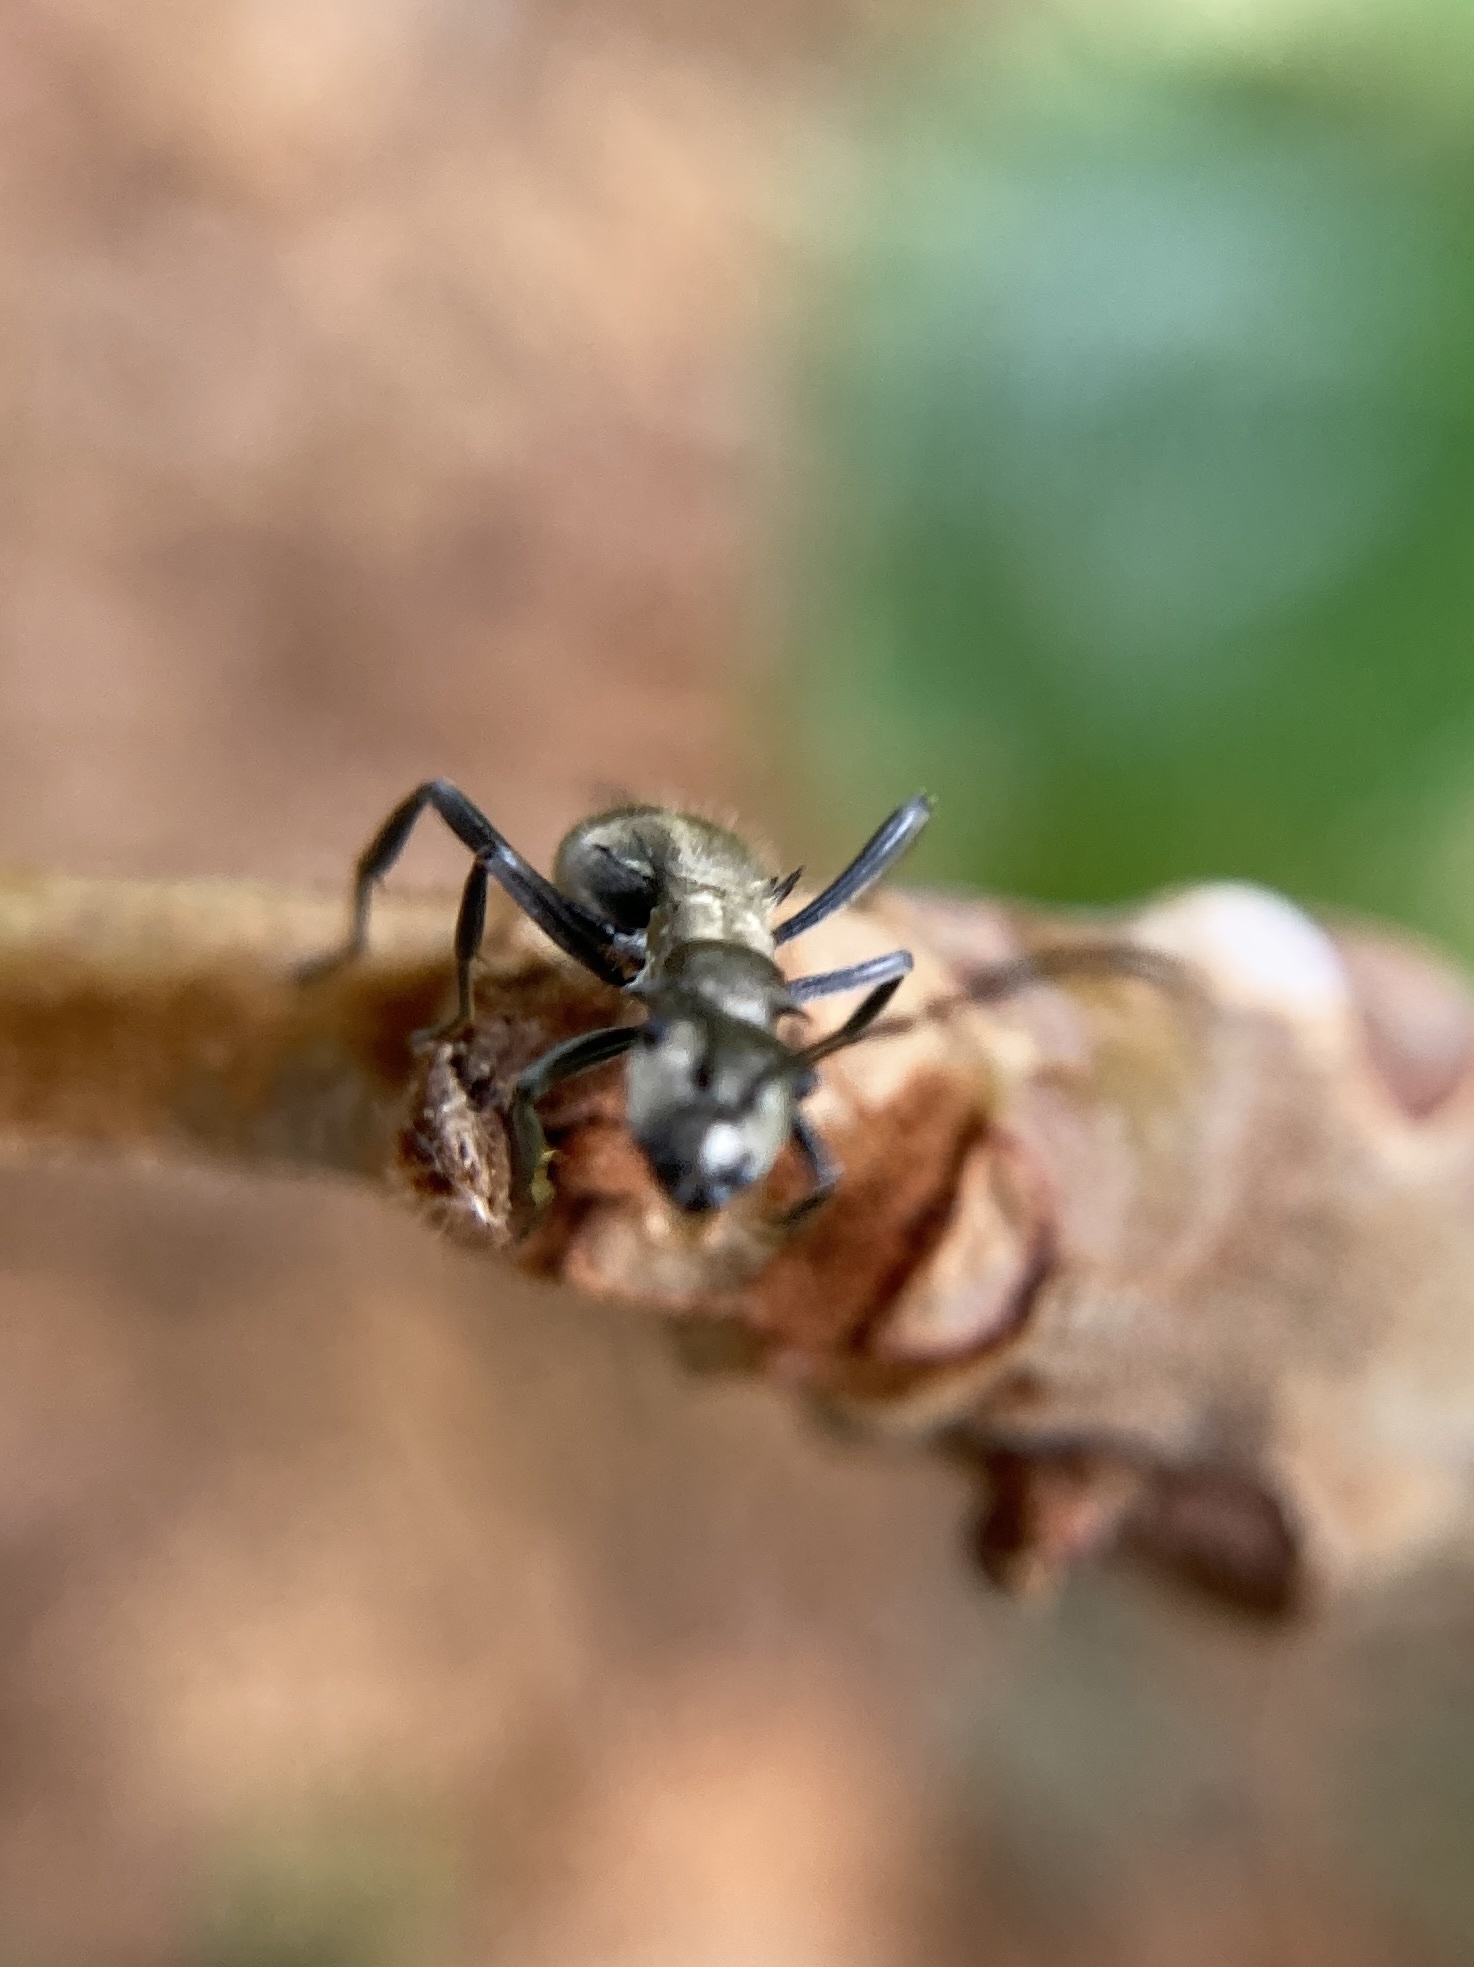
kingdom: Animalia
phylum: Arthropoda
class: Insecta
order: Hymenoptera
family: Formicidae
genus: Polyrhachis
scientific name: Polyrhachis cupreata
